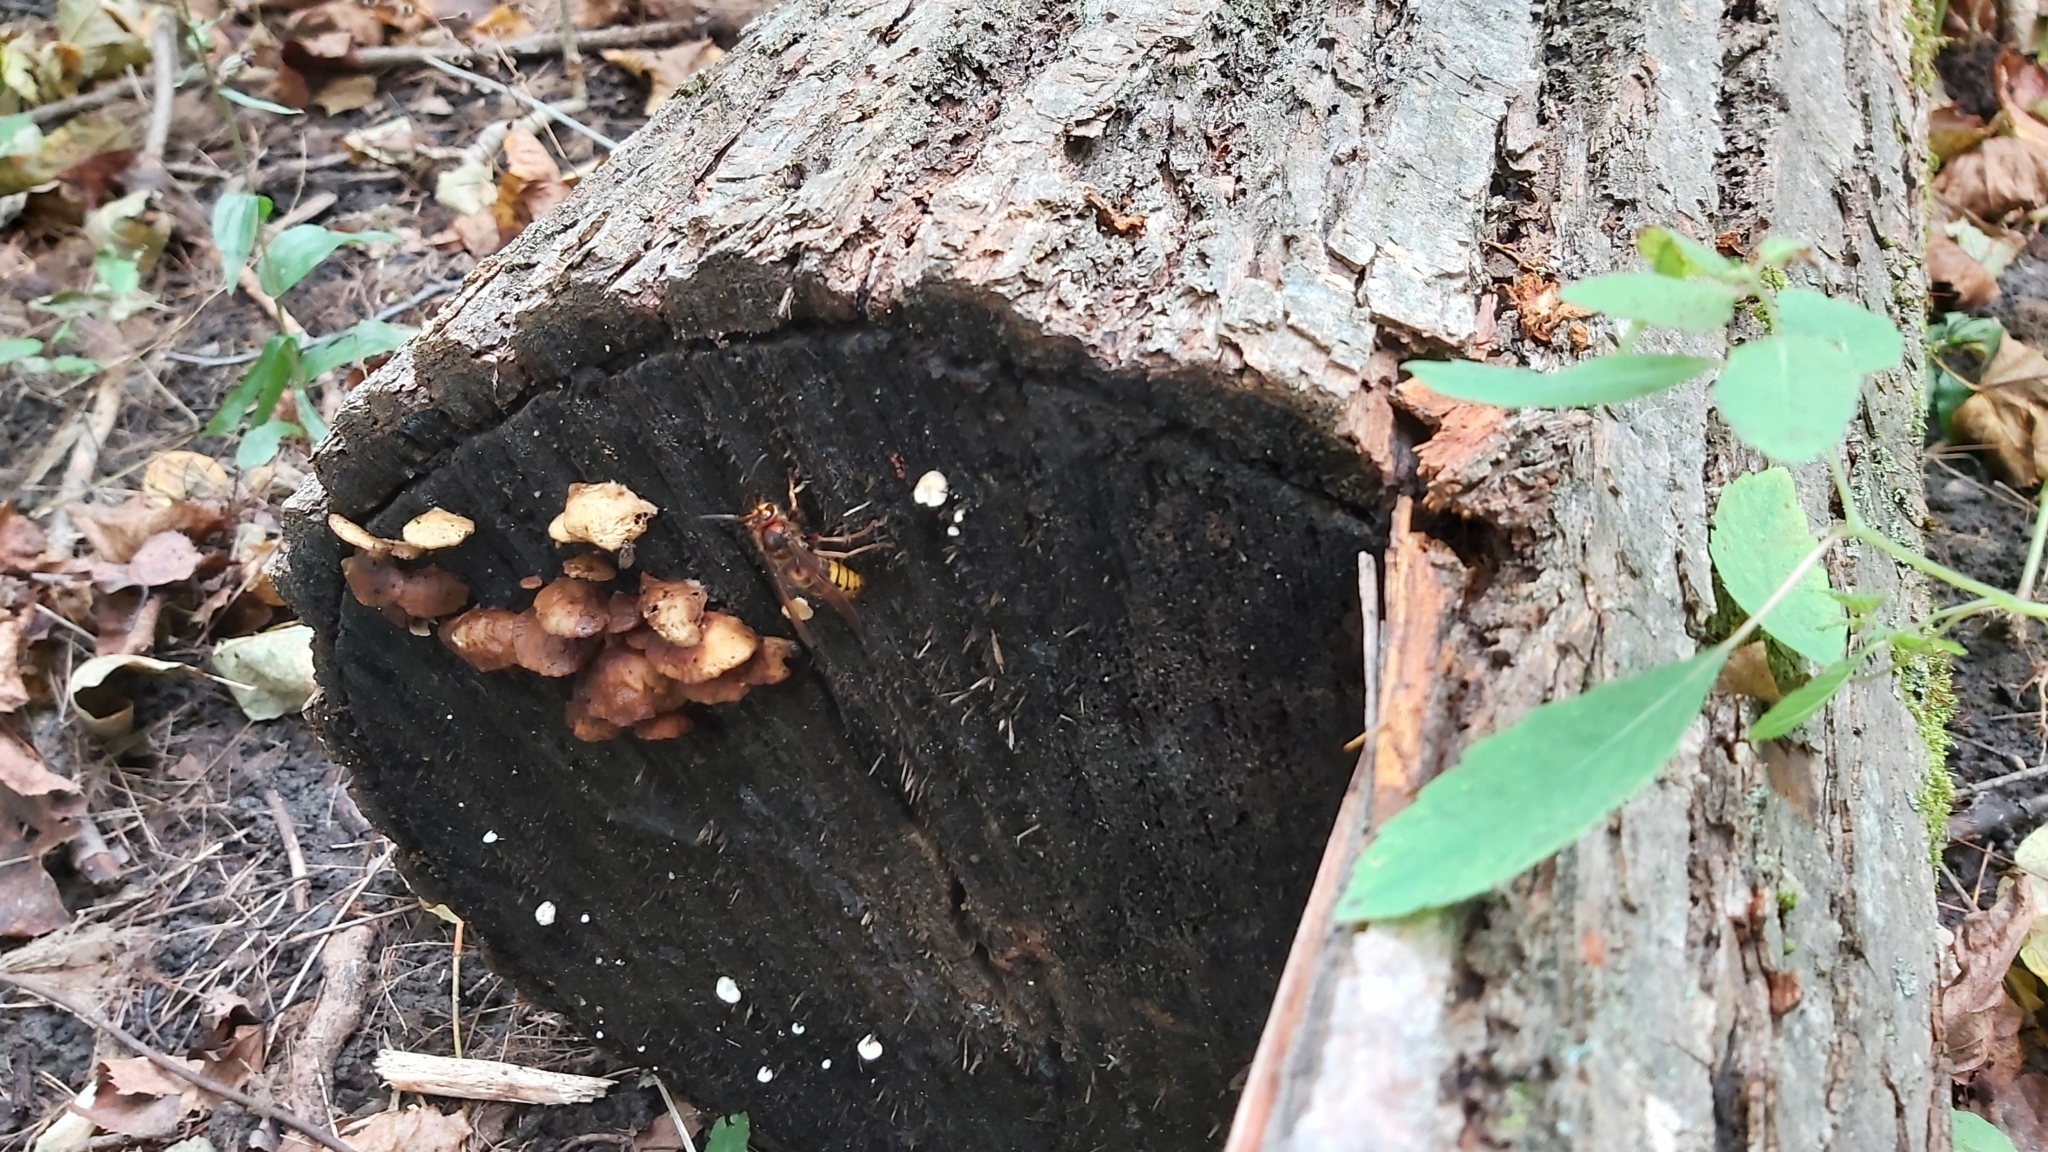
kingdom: Animalia
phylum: Arthropoda
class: Insecta
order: Hymenoptera
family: Vespidae
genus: Vespa
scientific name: Vespa crabro
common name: Hornet
